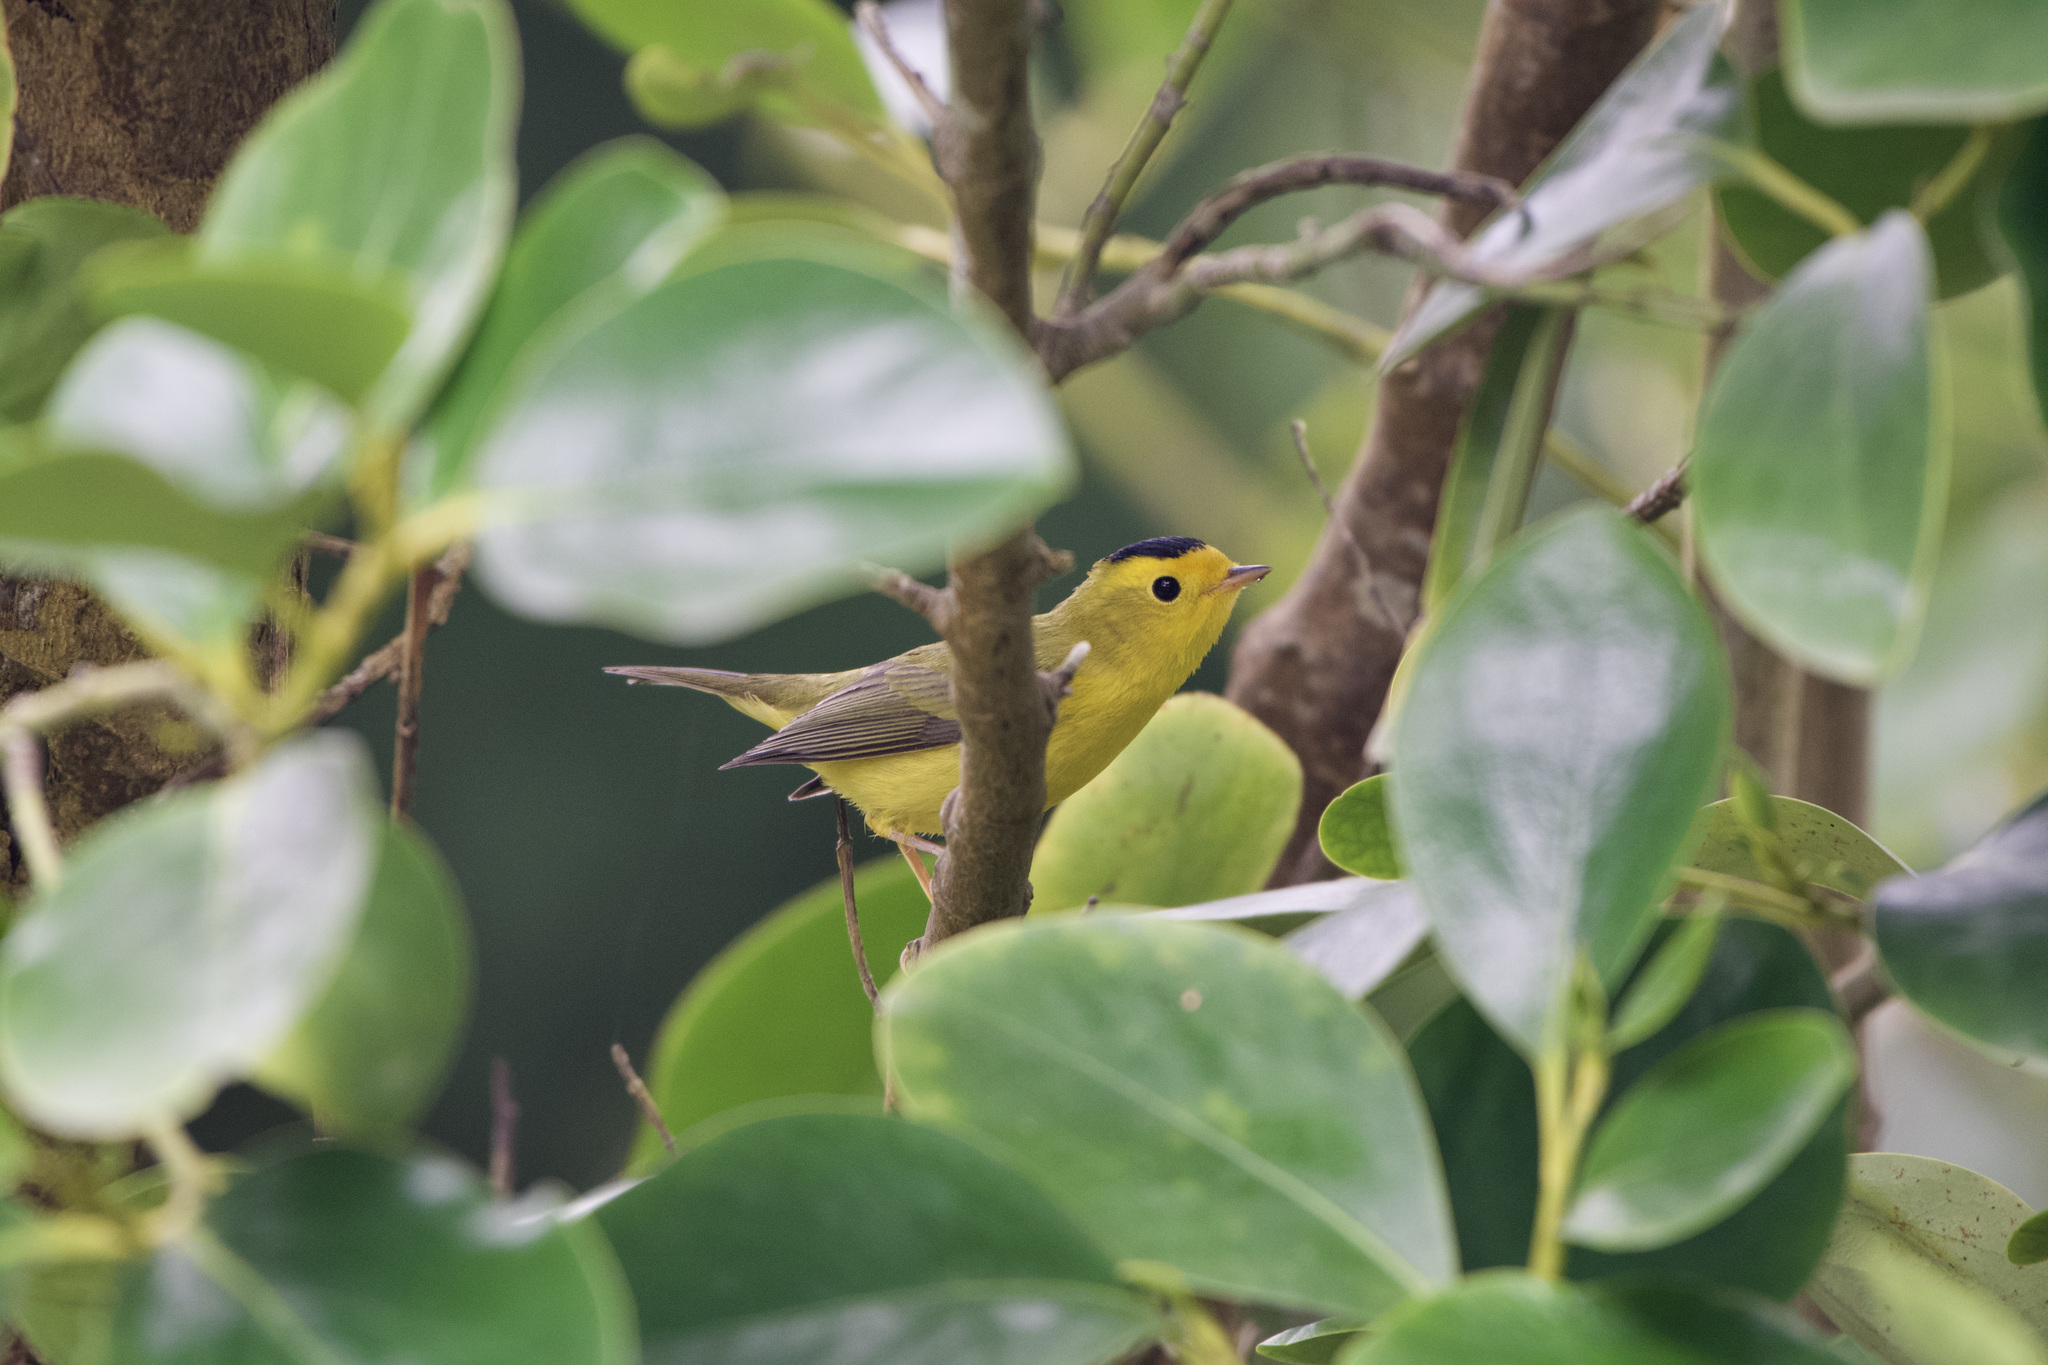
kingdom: Animalia
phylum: Chordata
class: Aves
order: Passeriformes
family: Parulidae
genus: Cardellina
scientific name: Cardellina pusilla
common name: Wilson's warbler
